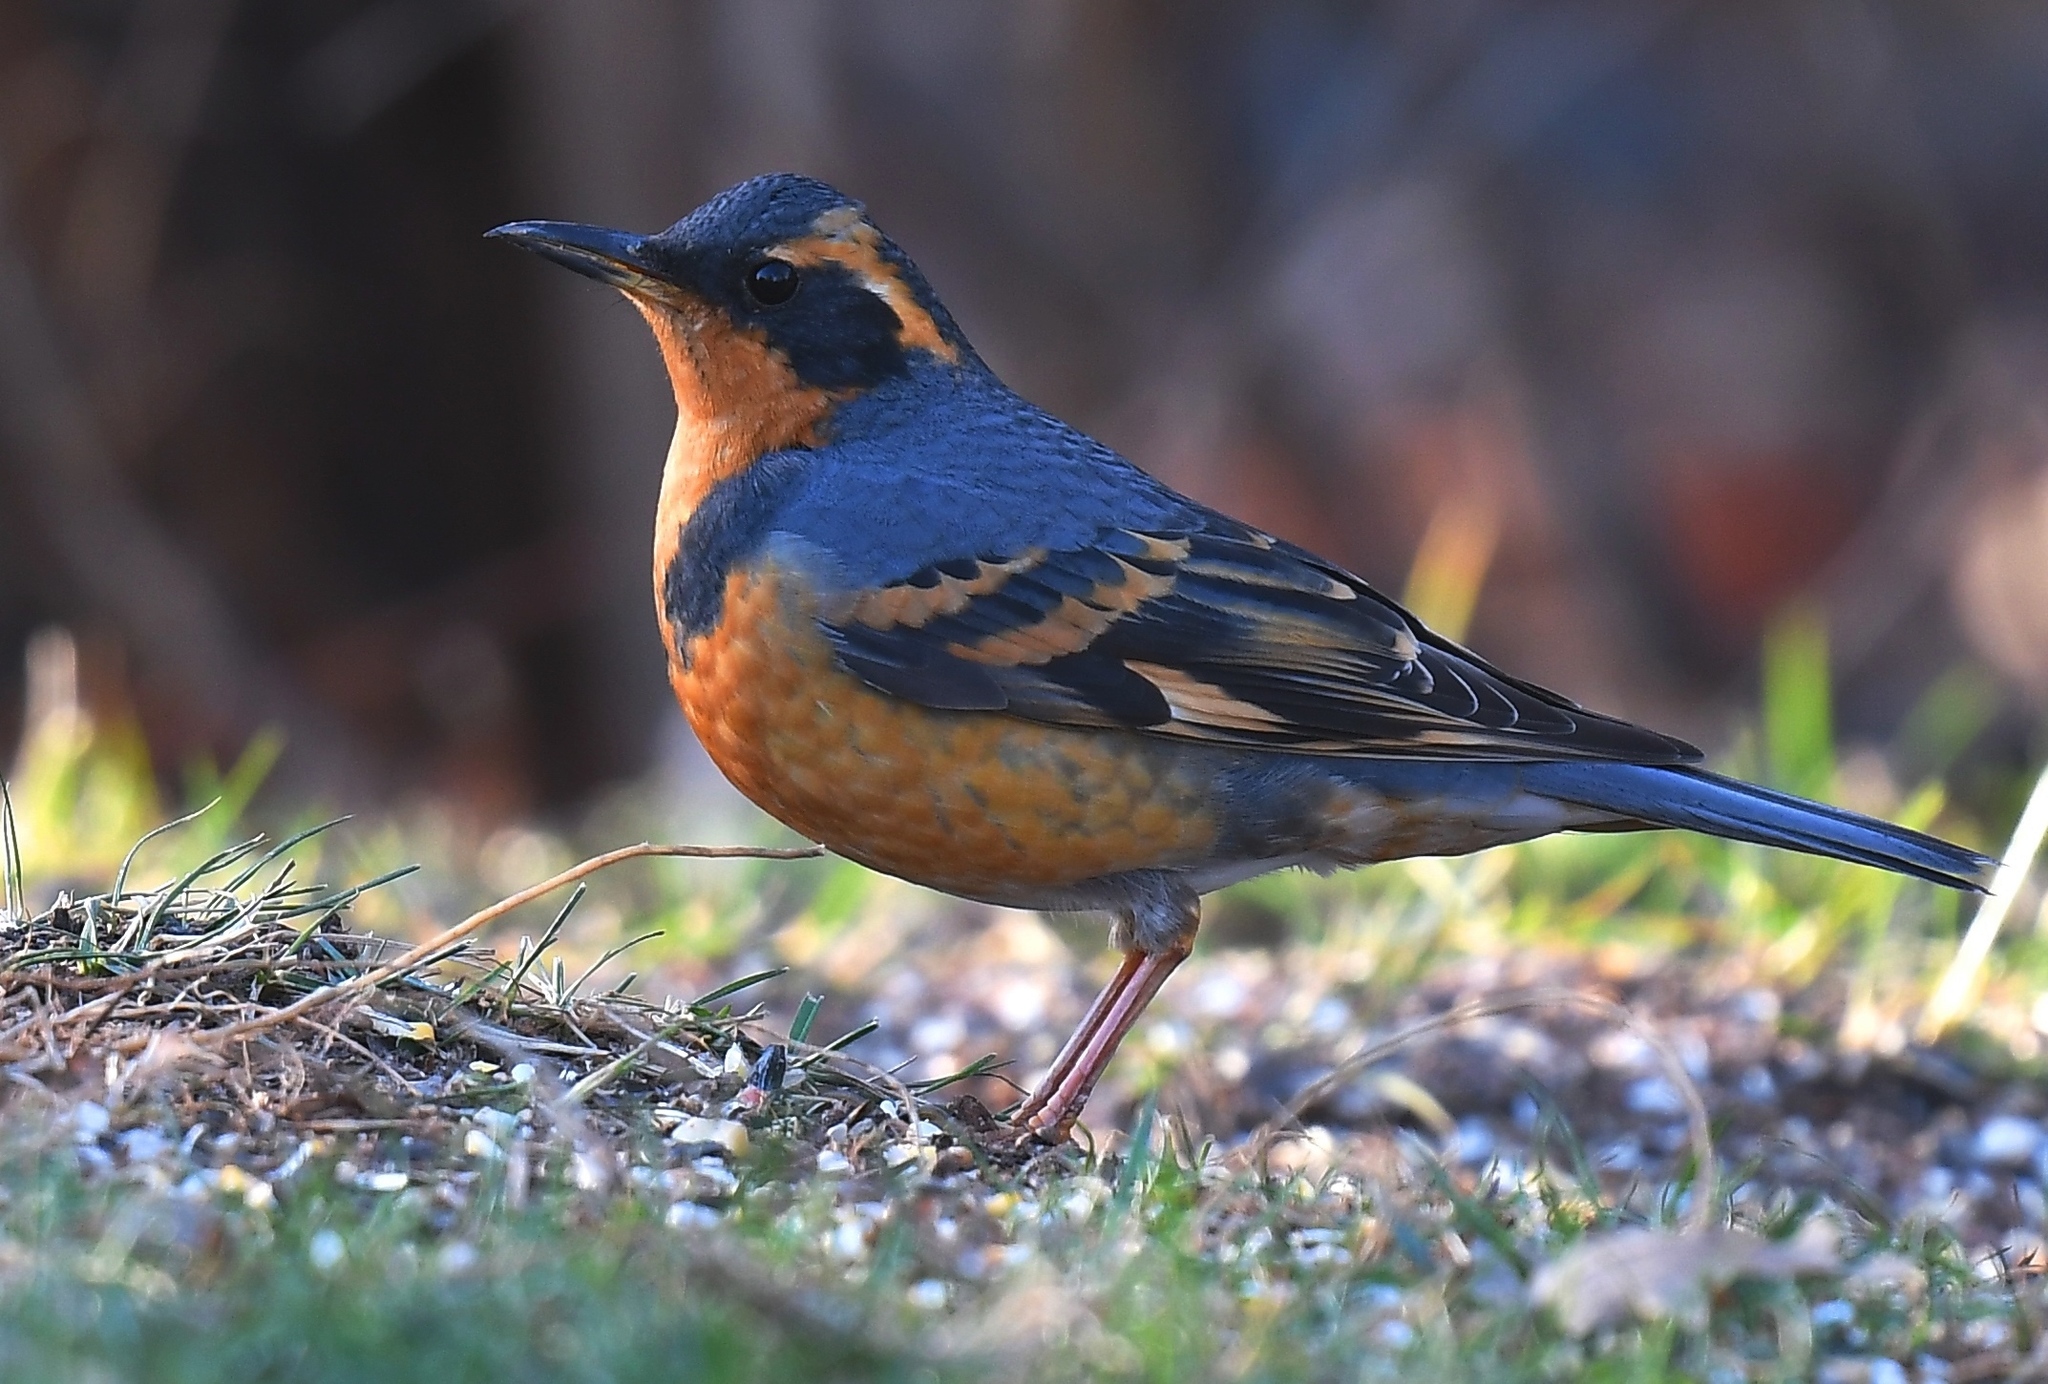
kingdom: Animalia
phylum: Chordata
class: Aves
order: Passeriformes
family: Turdidae
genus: Ixoreus
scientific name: Ixoreus naevius
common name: Varied thrush
